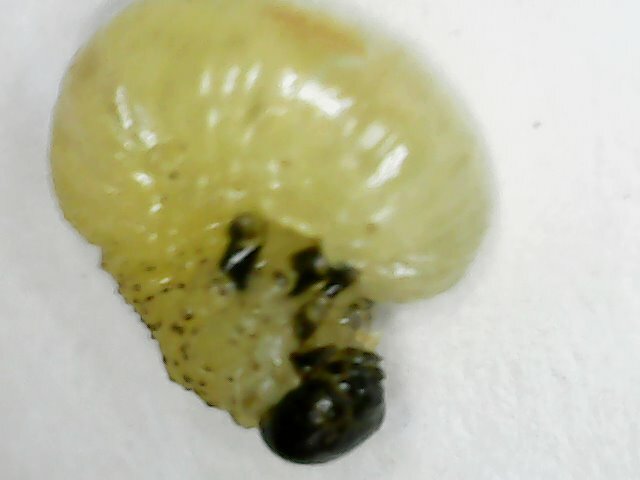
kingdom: Animalia
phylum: Arthropoda
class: Insecta
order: Hymenoptera
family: Tenthredinidae
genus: Moricella
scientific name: Moricella rufonota
